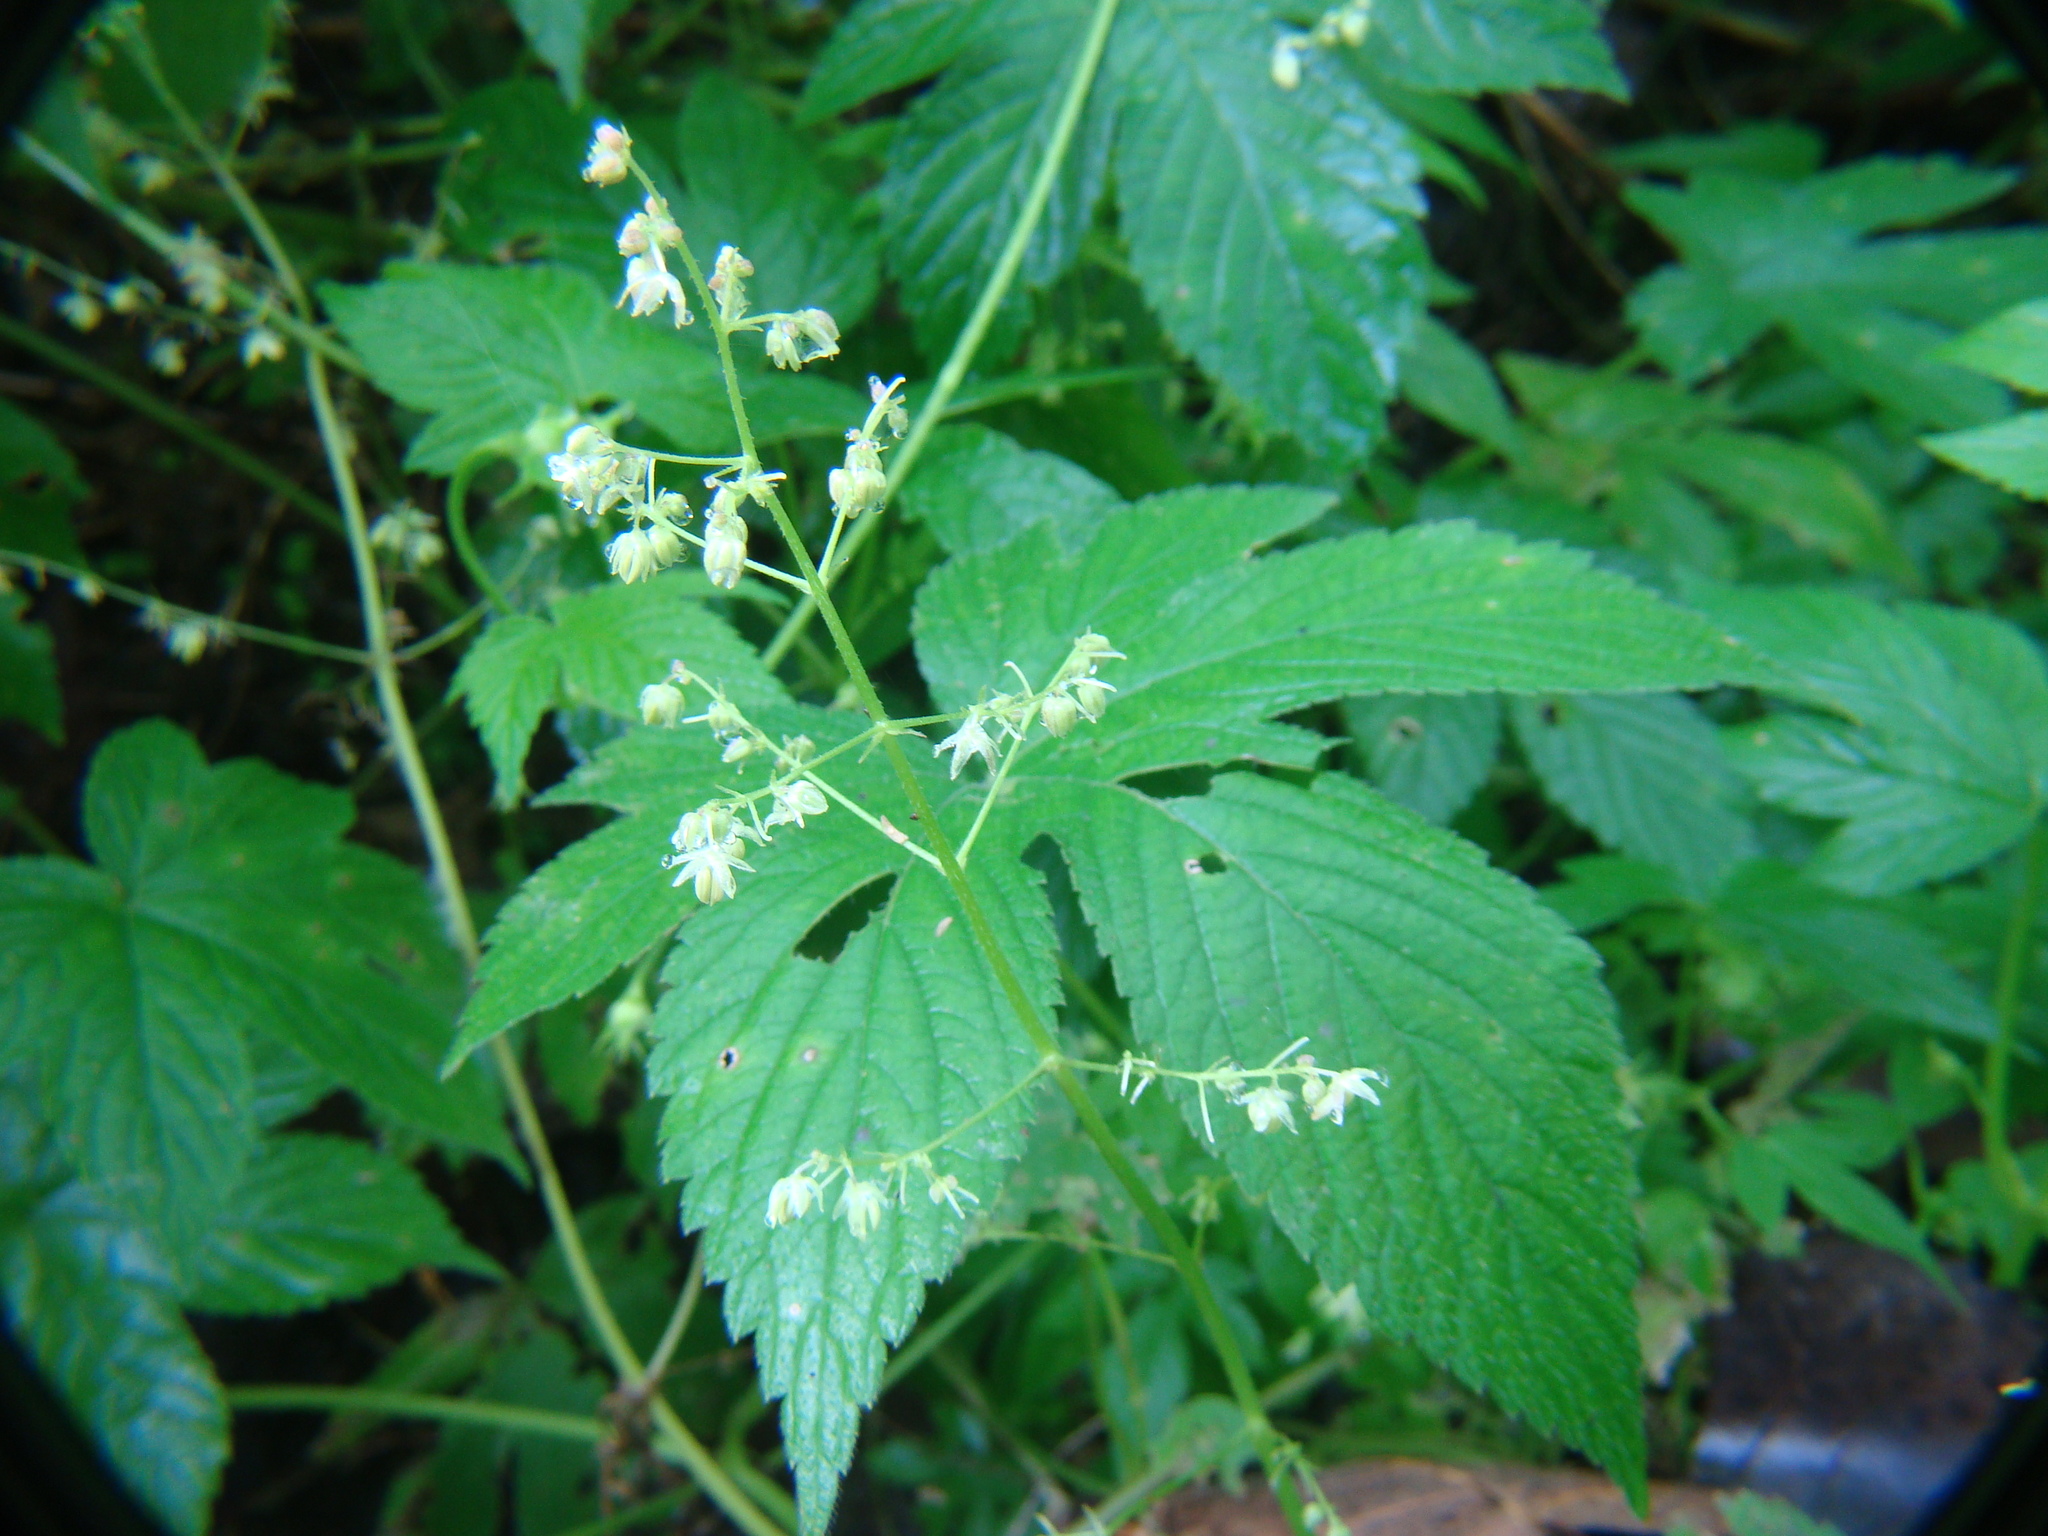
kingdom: Plantae
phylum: Tracheophyta
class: Magnoliopsida
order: Rosales
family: Cannabaceae
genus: Humulus
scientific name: Humulus scandens
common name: Japanese hop
